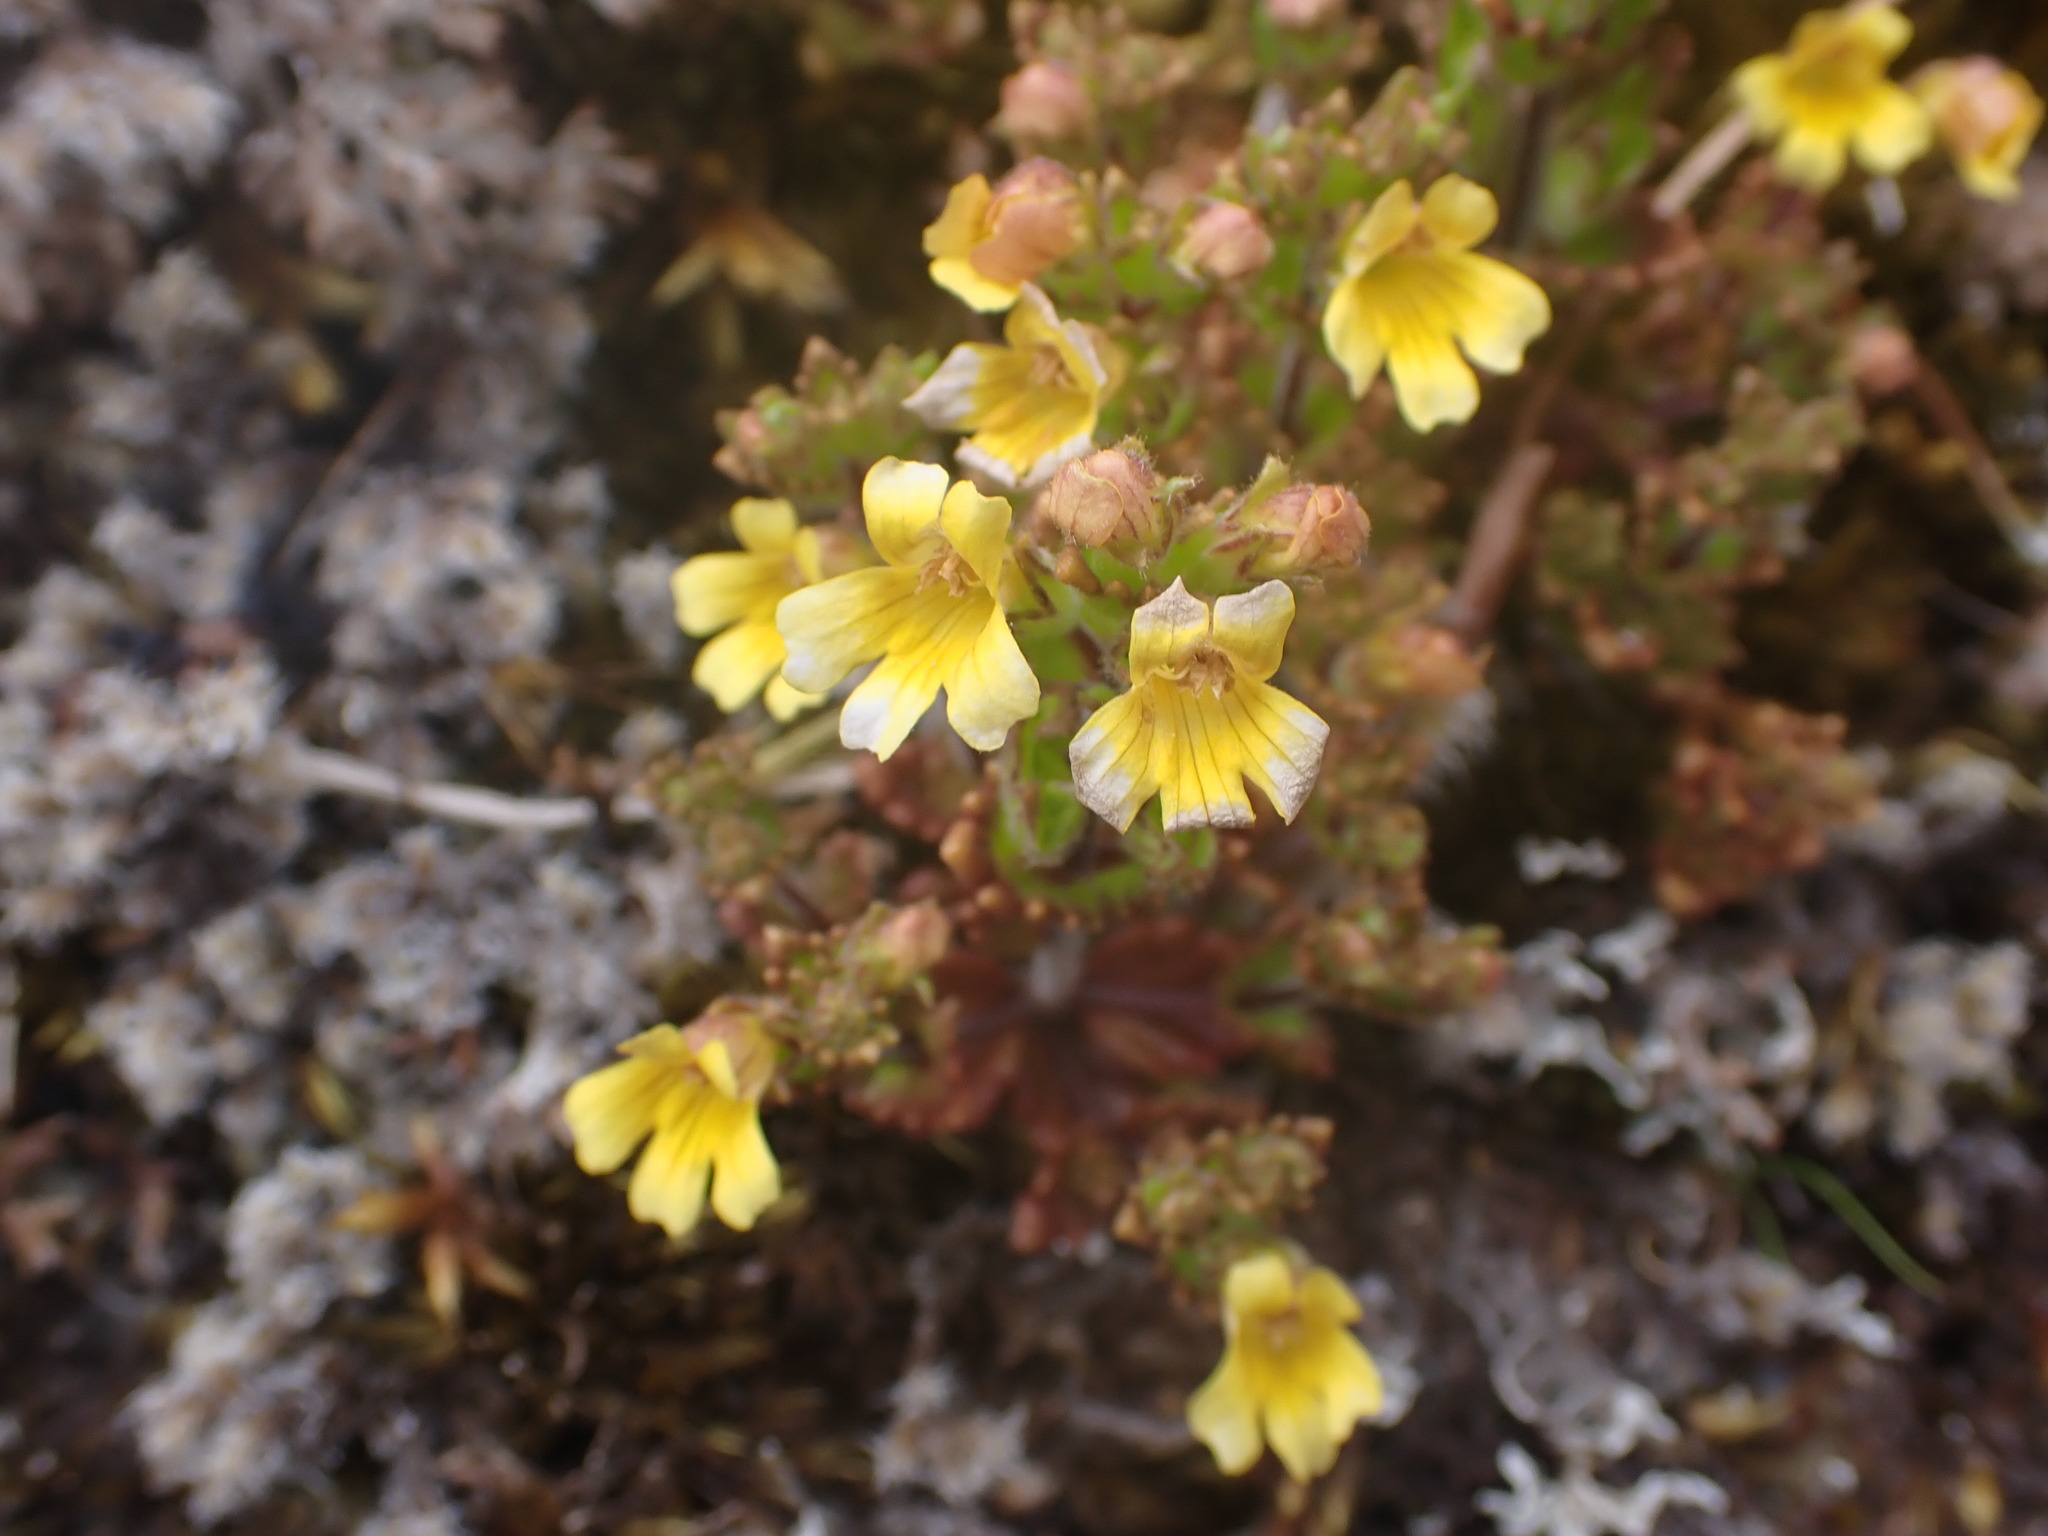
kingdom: Plantae
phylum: Tracheophyta
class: Magnoliopsida
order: Lamiales
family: Orobanchaceae
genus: Euphrasia
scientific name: Euphrasia cockayneana
